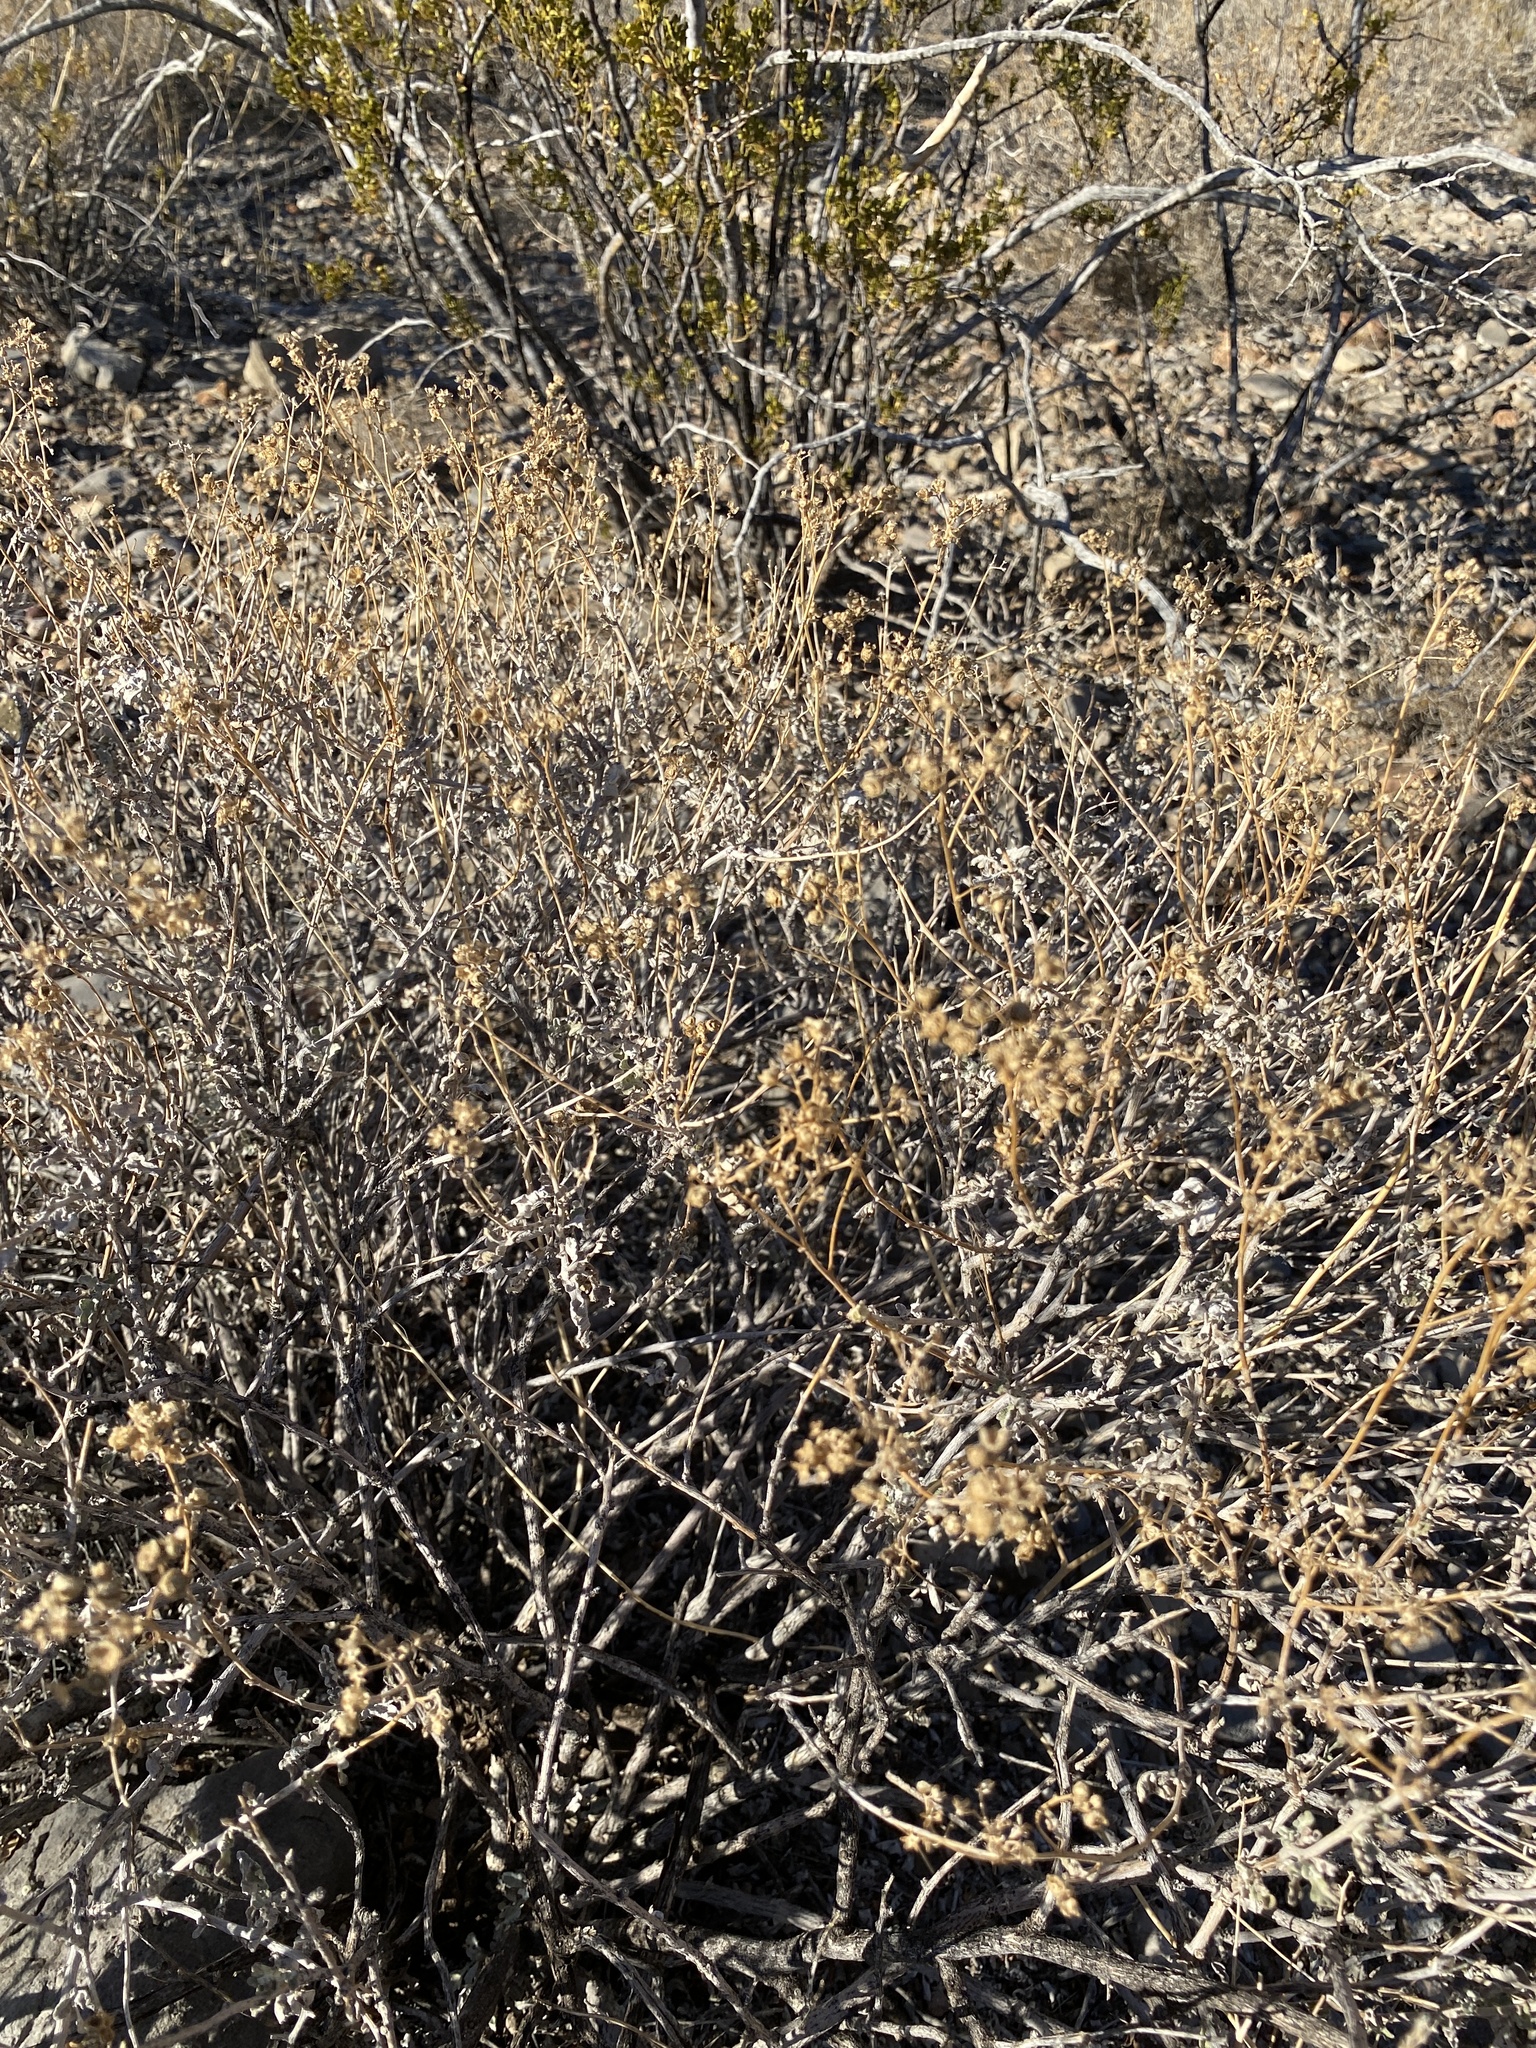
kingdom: Plantae
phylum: Tracheophyta
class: Magnoliopsida
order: Asterales
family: Asteraceae
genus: Parthenium
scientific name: Parthenium incanum
